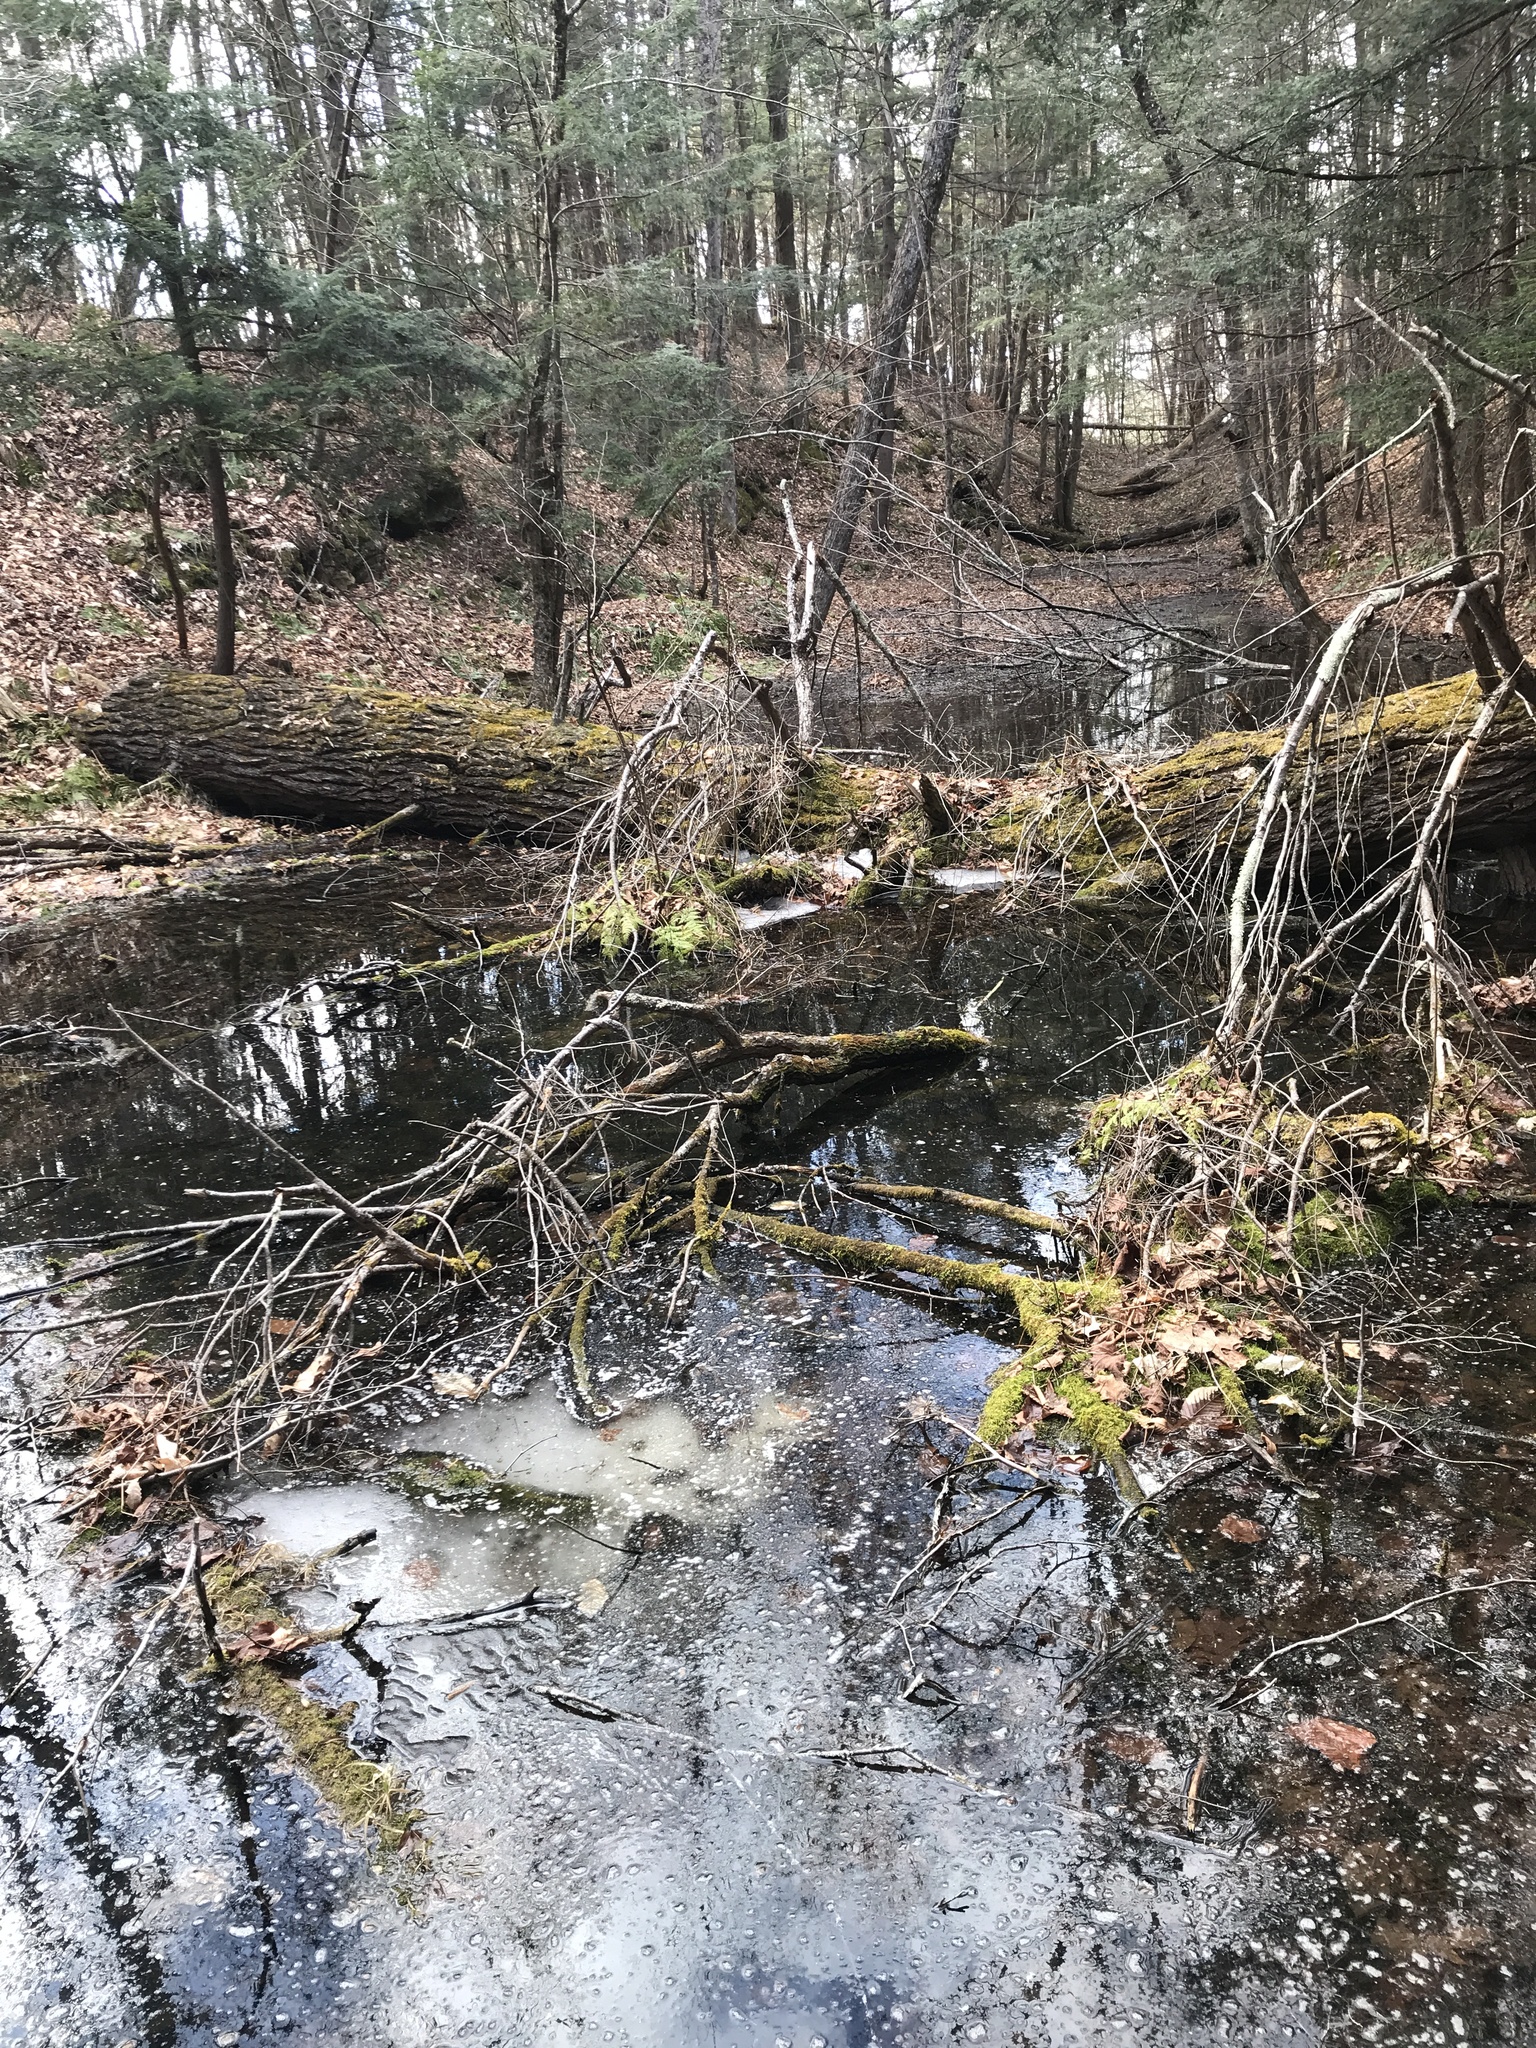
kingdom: Animalia
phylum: Chordata
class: Amphibia
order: Anura
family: Ranidae
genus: Lithobates
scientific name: Lithobates sylvaticus
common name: Wood frog
